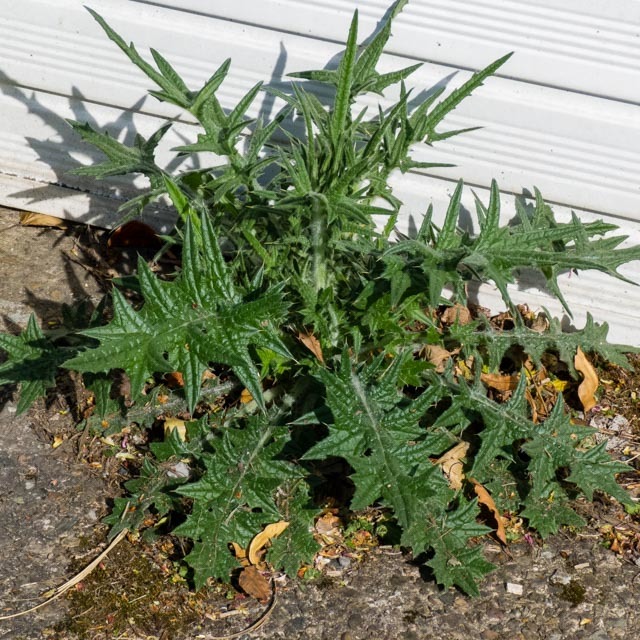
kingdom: Plantae
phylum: Tracheophyta
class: Magnoliopsida
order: Asterales
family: Asteraceae
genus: Cirsium
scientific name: Cirsium vulgare
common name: Bull thistle
